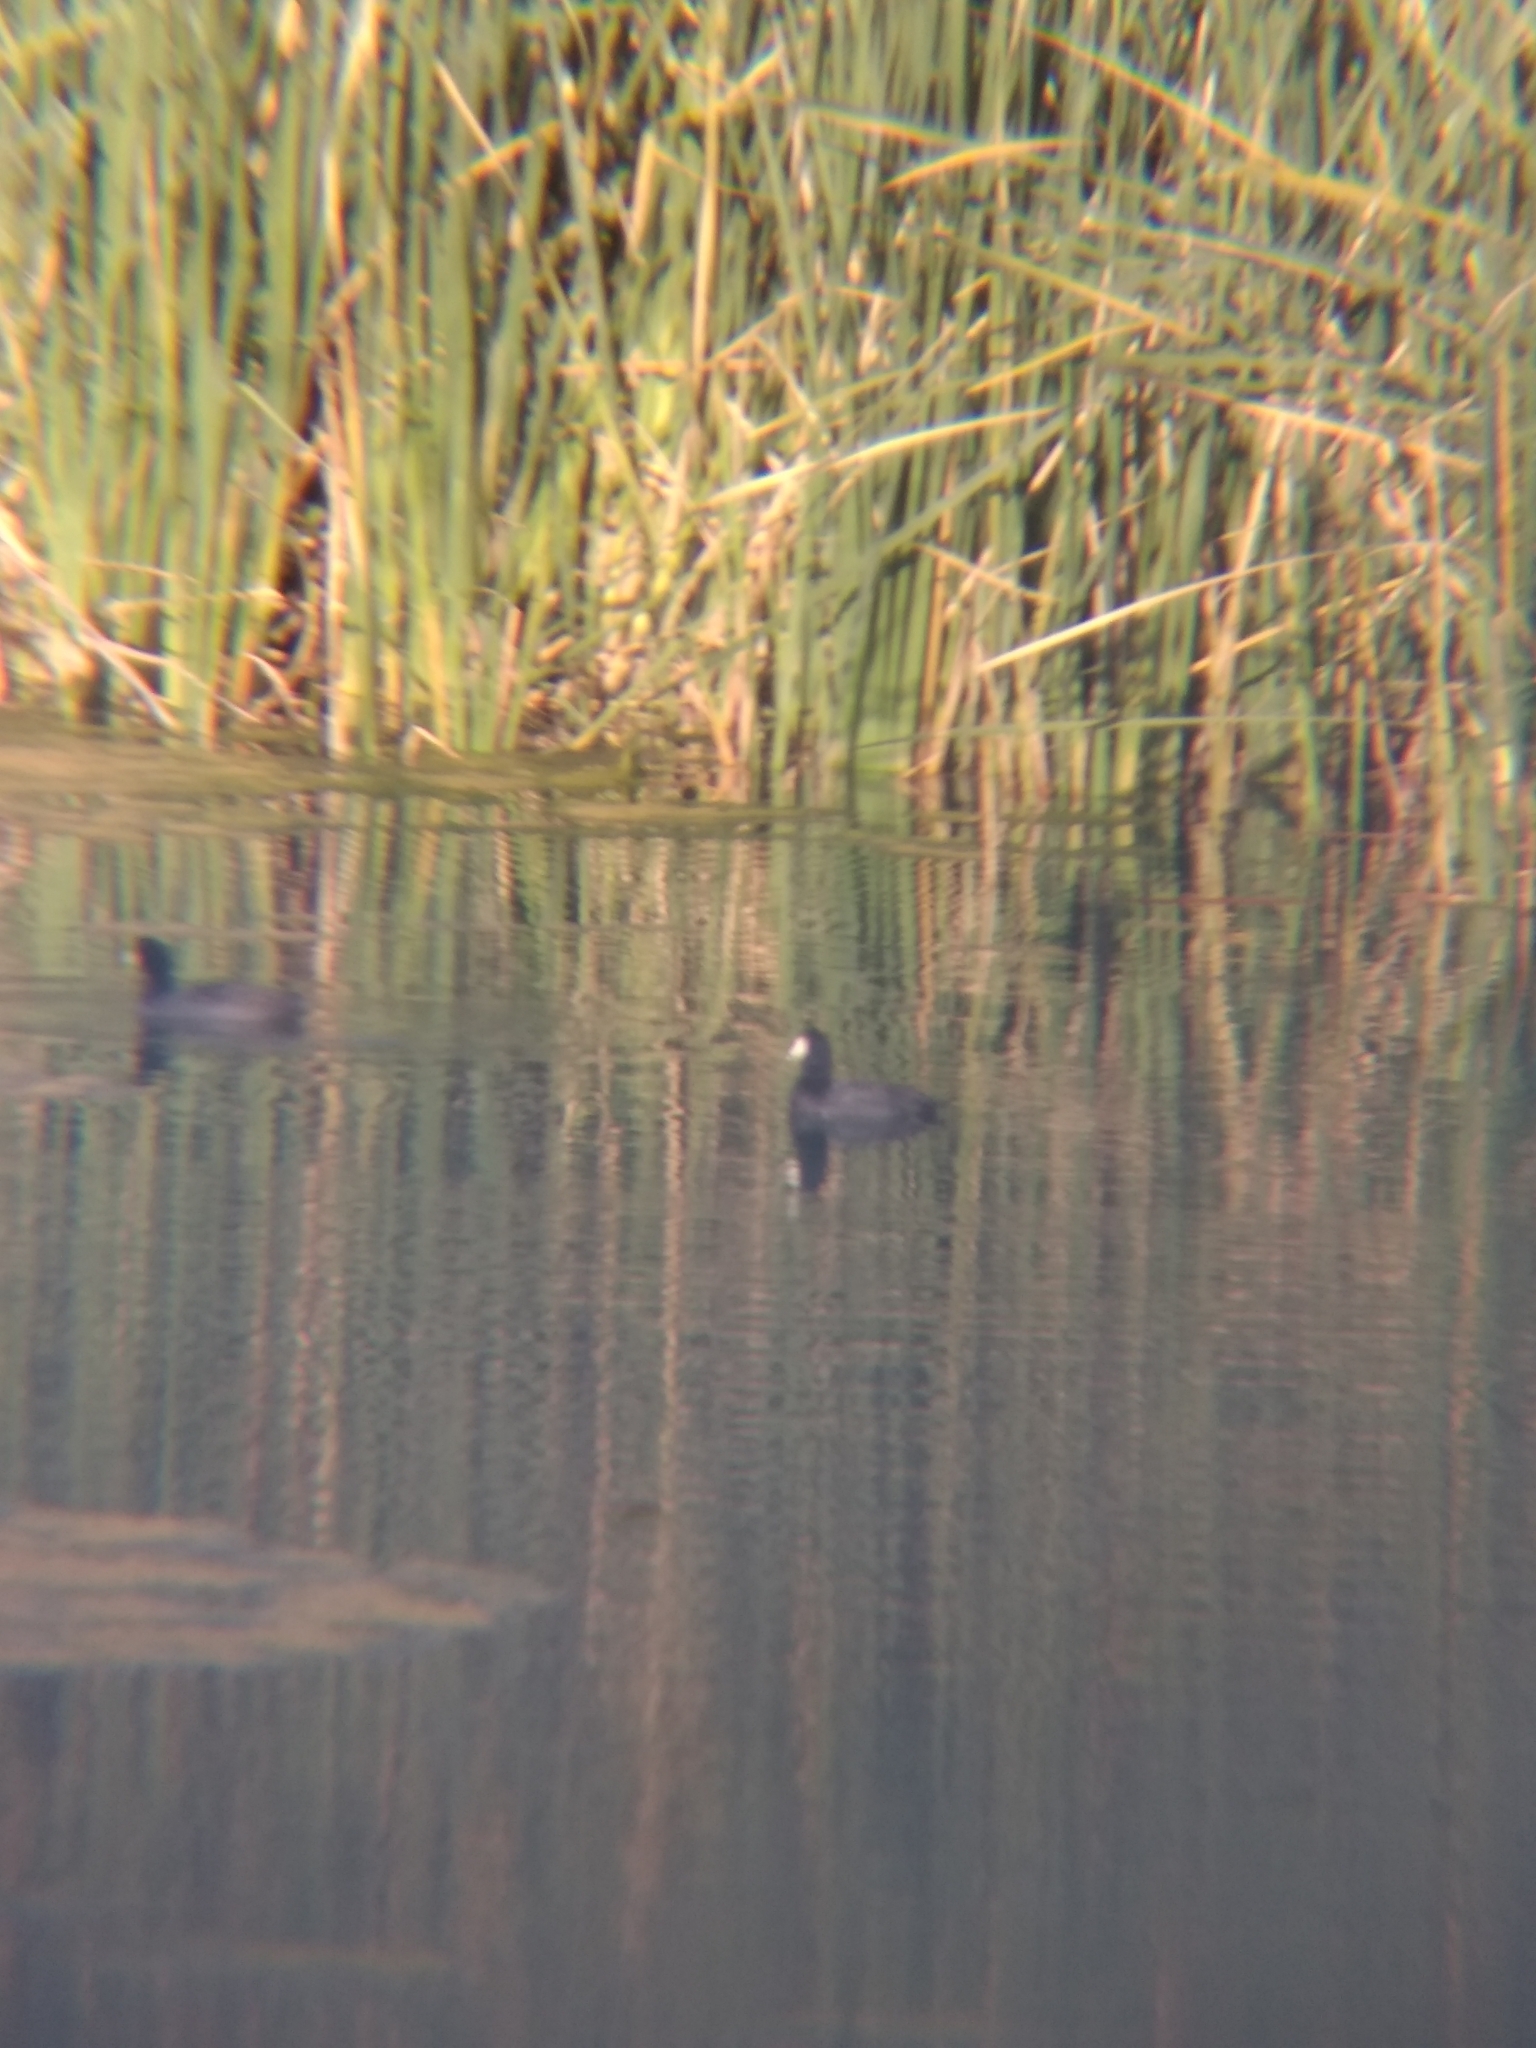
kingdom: Animalia
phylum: Chordata
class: Aves
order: Gruiformes
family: Rallidae
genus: Fulica
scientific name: Fulica americana
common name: American coot
